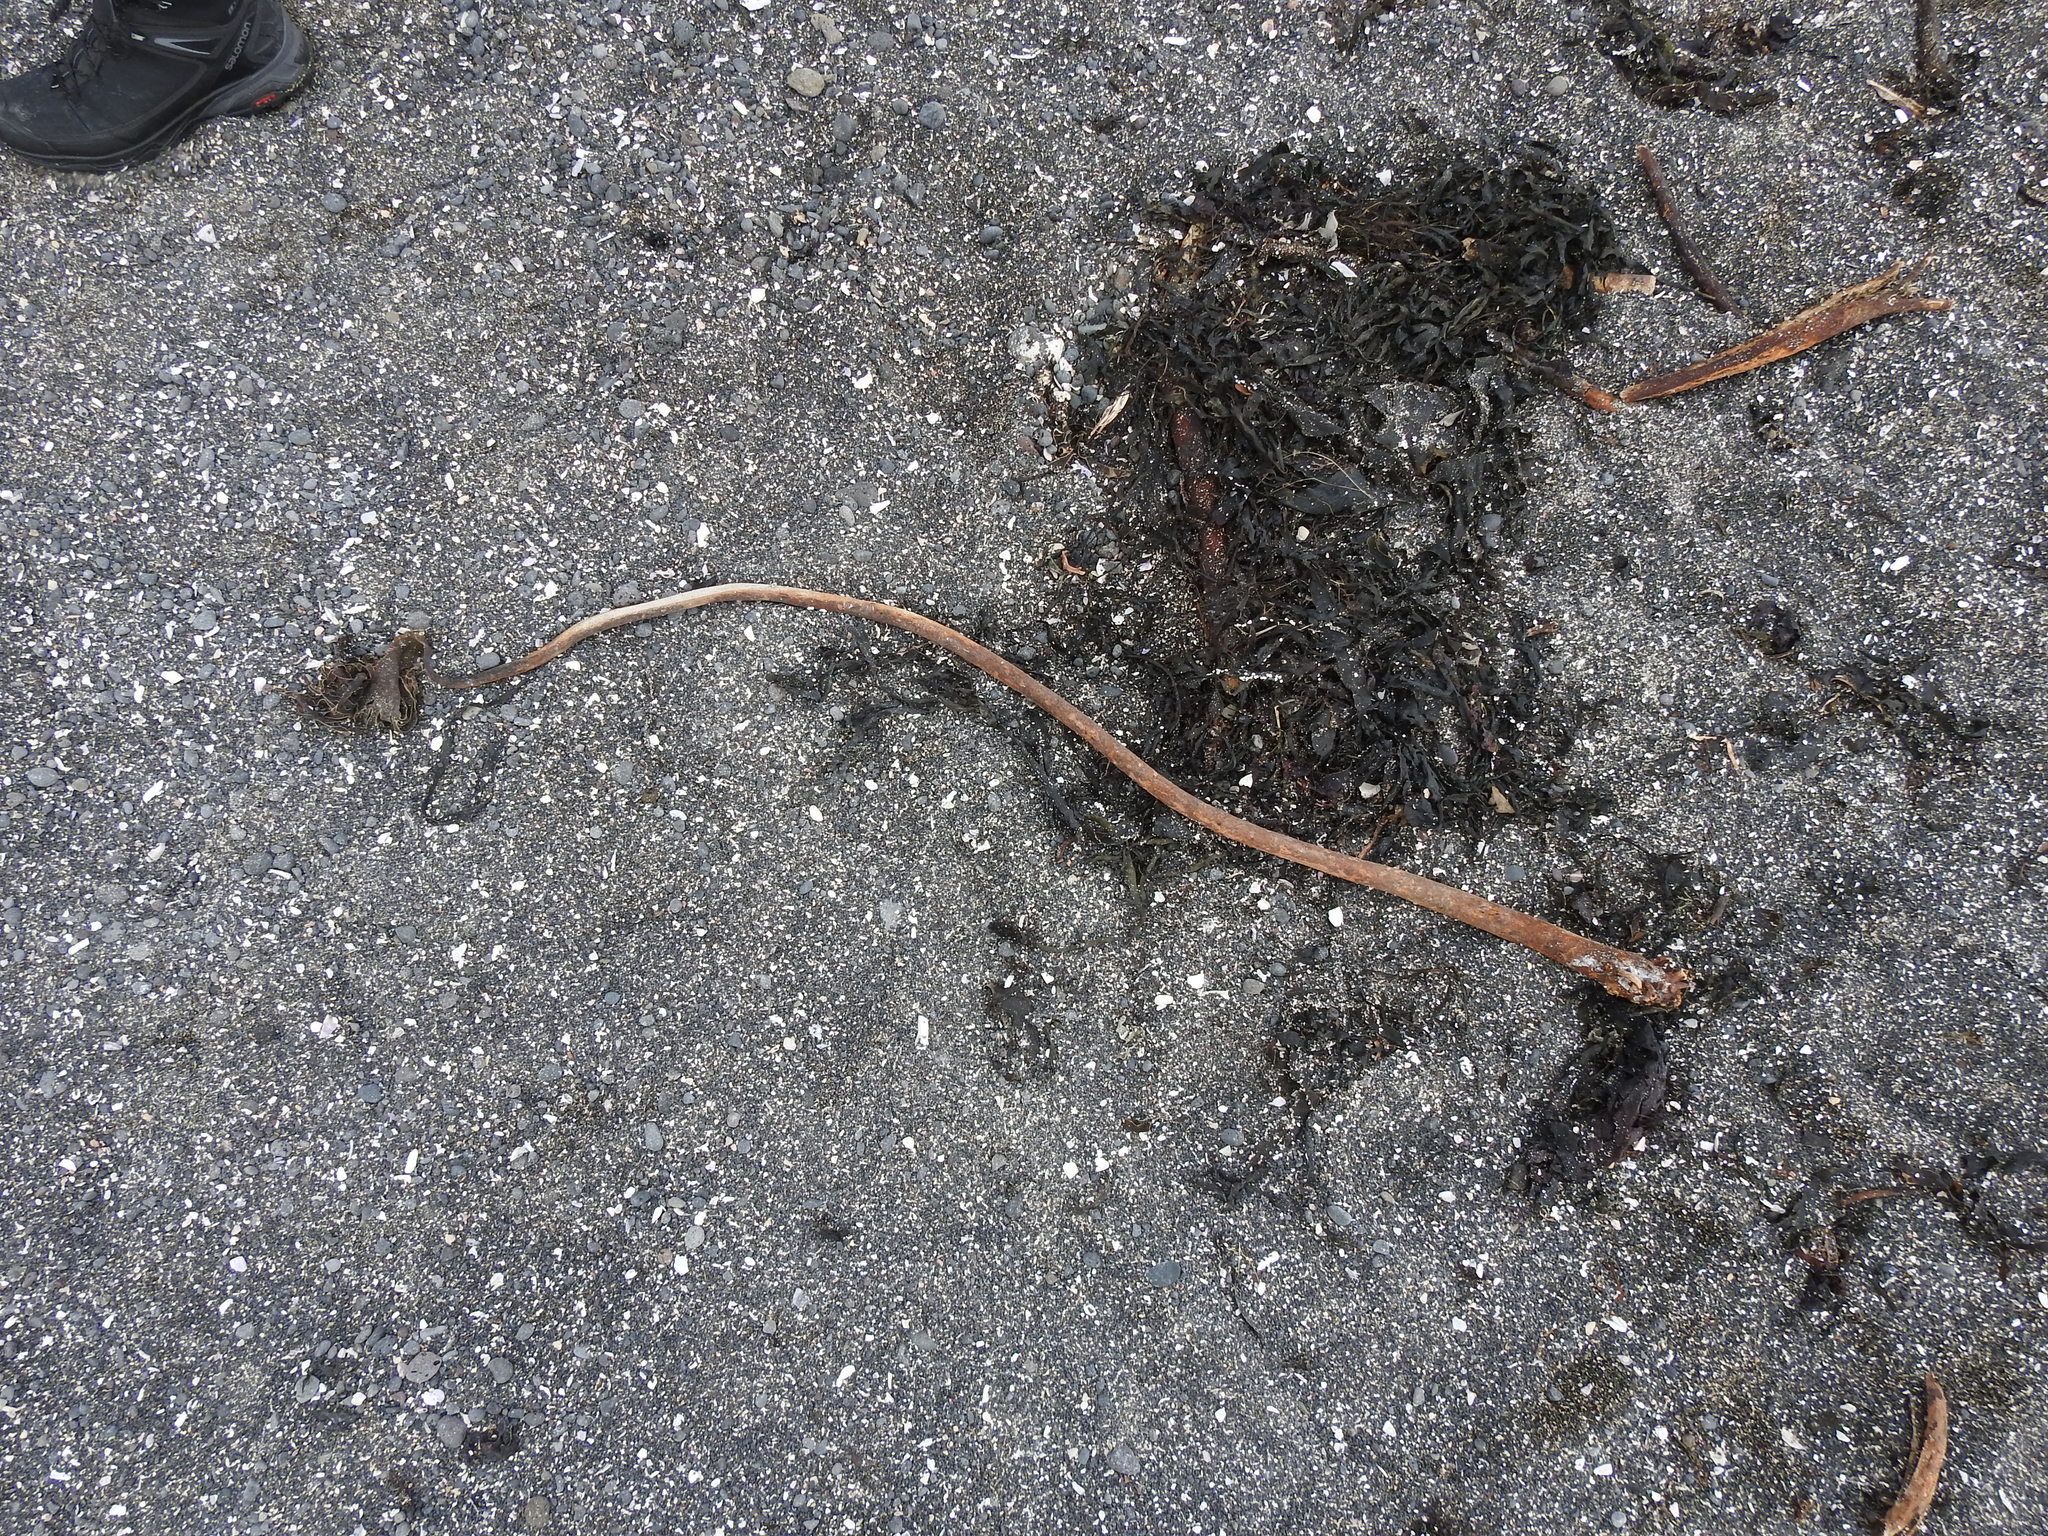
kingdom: Chromista
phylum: Ochrophyta
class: Phaeophyceae
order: Fucales
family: Fucaceae
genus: Fucus
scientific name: Fucus serratus
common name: Toothed wrack
